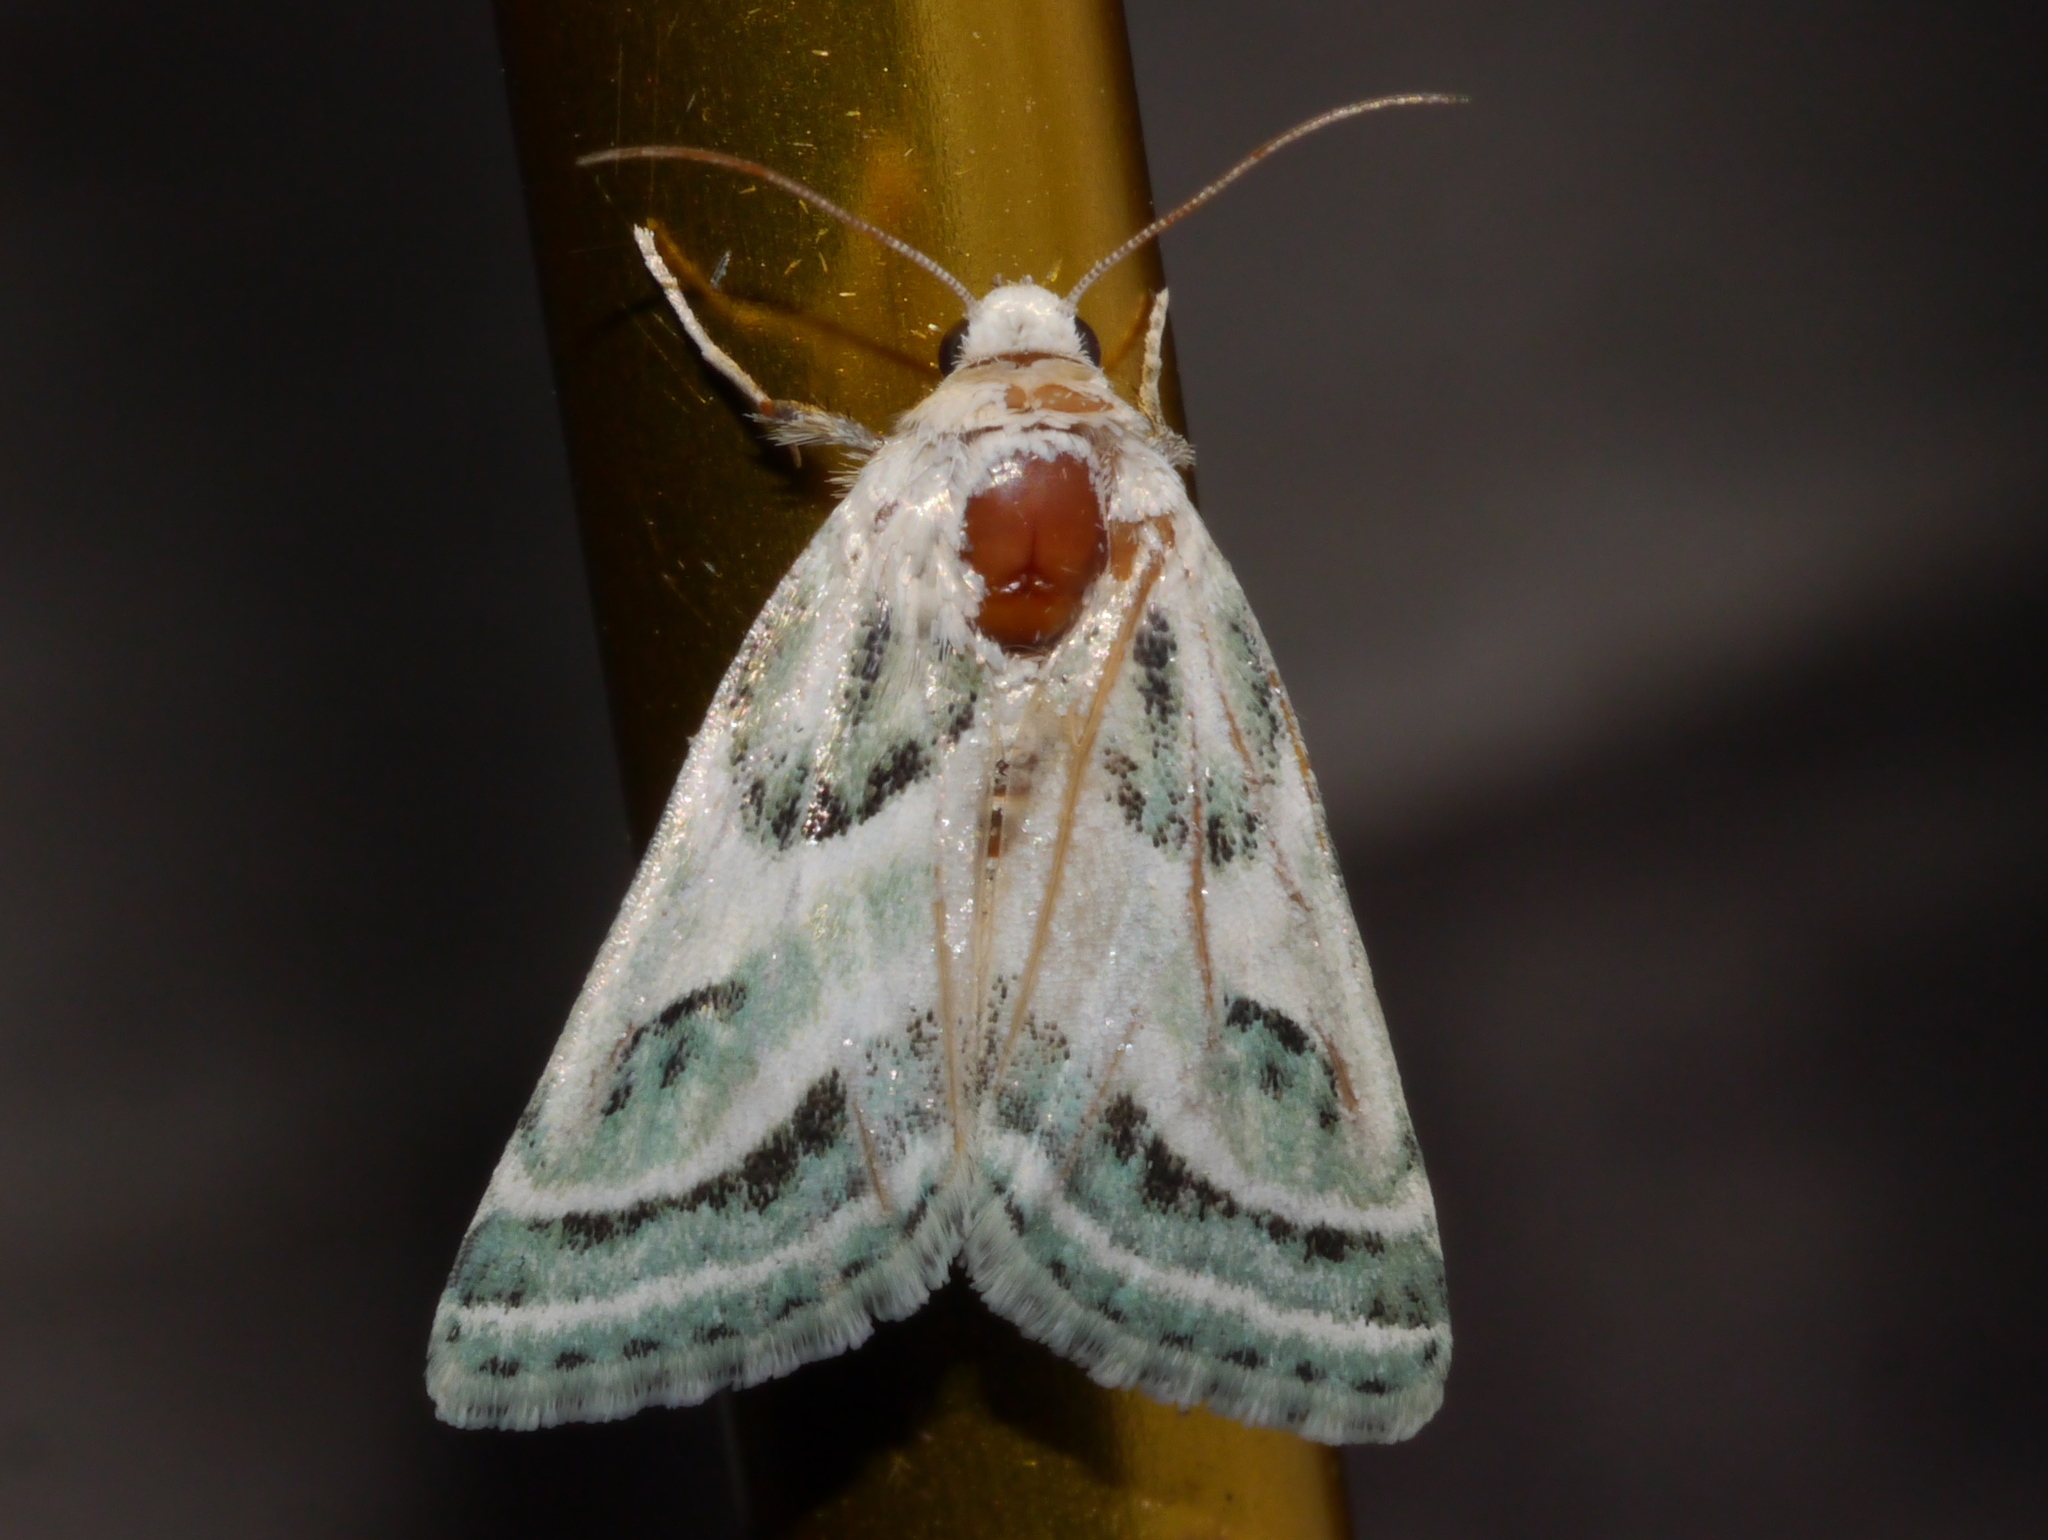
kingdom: Animalia
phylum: Arthropoda
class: Insecta
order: Lepidoptera
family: Noctuidae
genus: Schinia
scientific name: Schinia accessa
